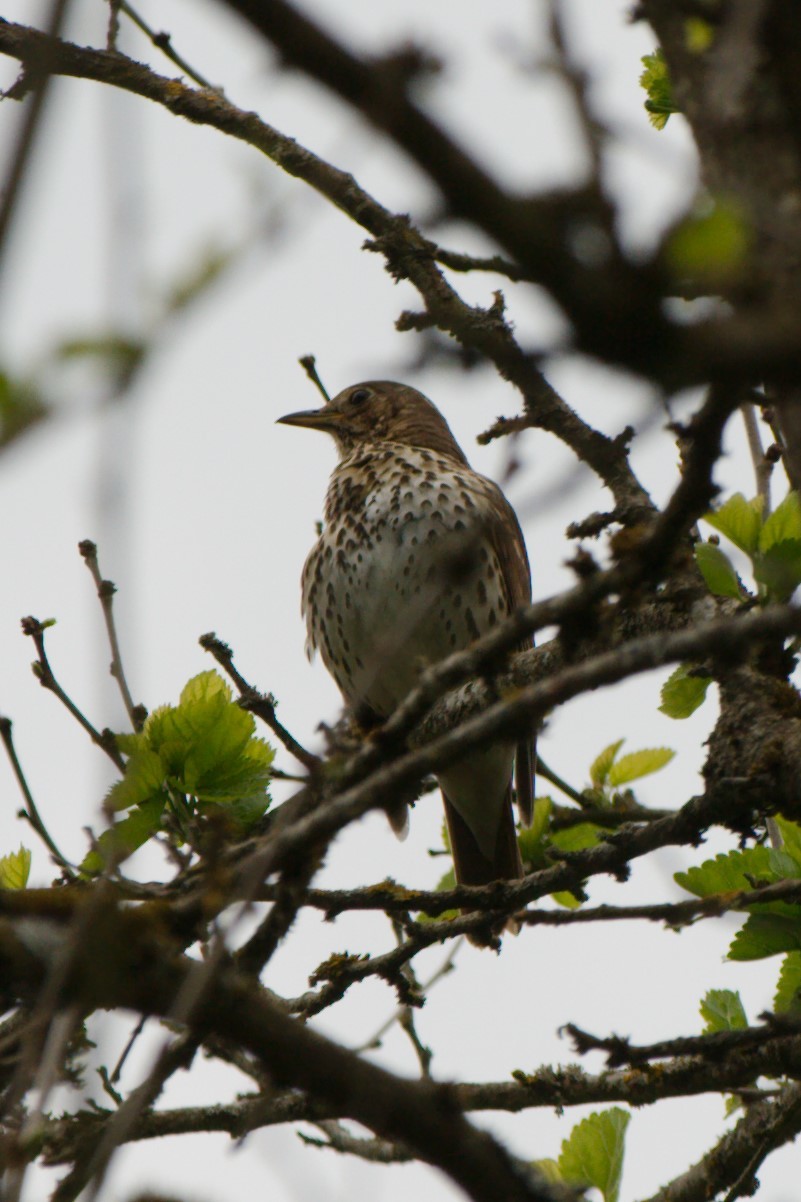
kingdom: Animalia
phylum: Chordata
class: Aves
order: Passeriformes
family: Turdidae
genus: Turdus
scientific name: Turdus philomelos
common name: Song thrush
